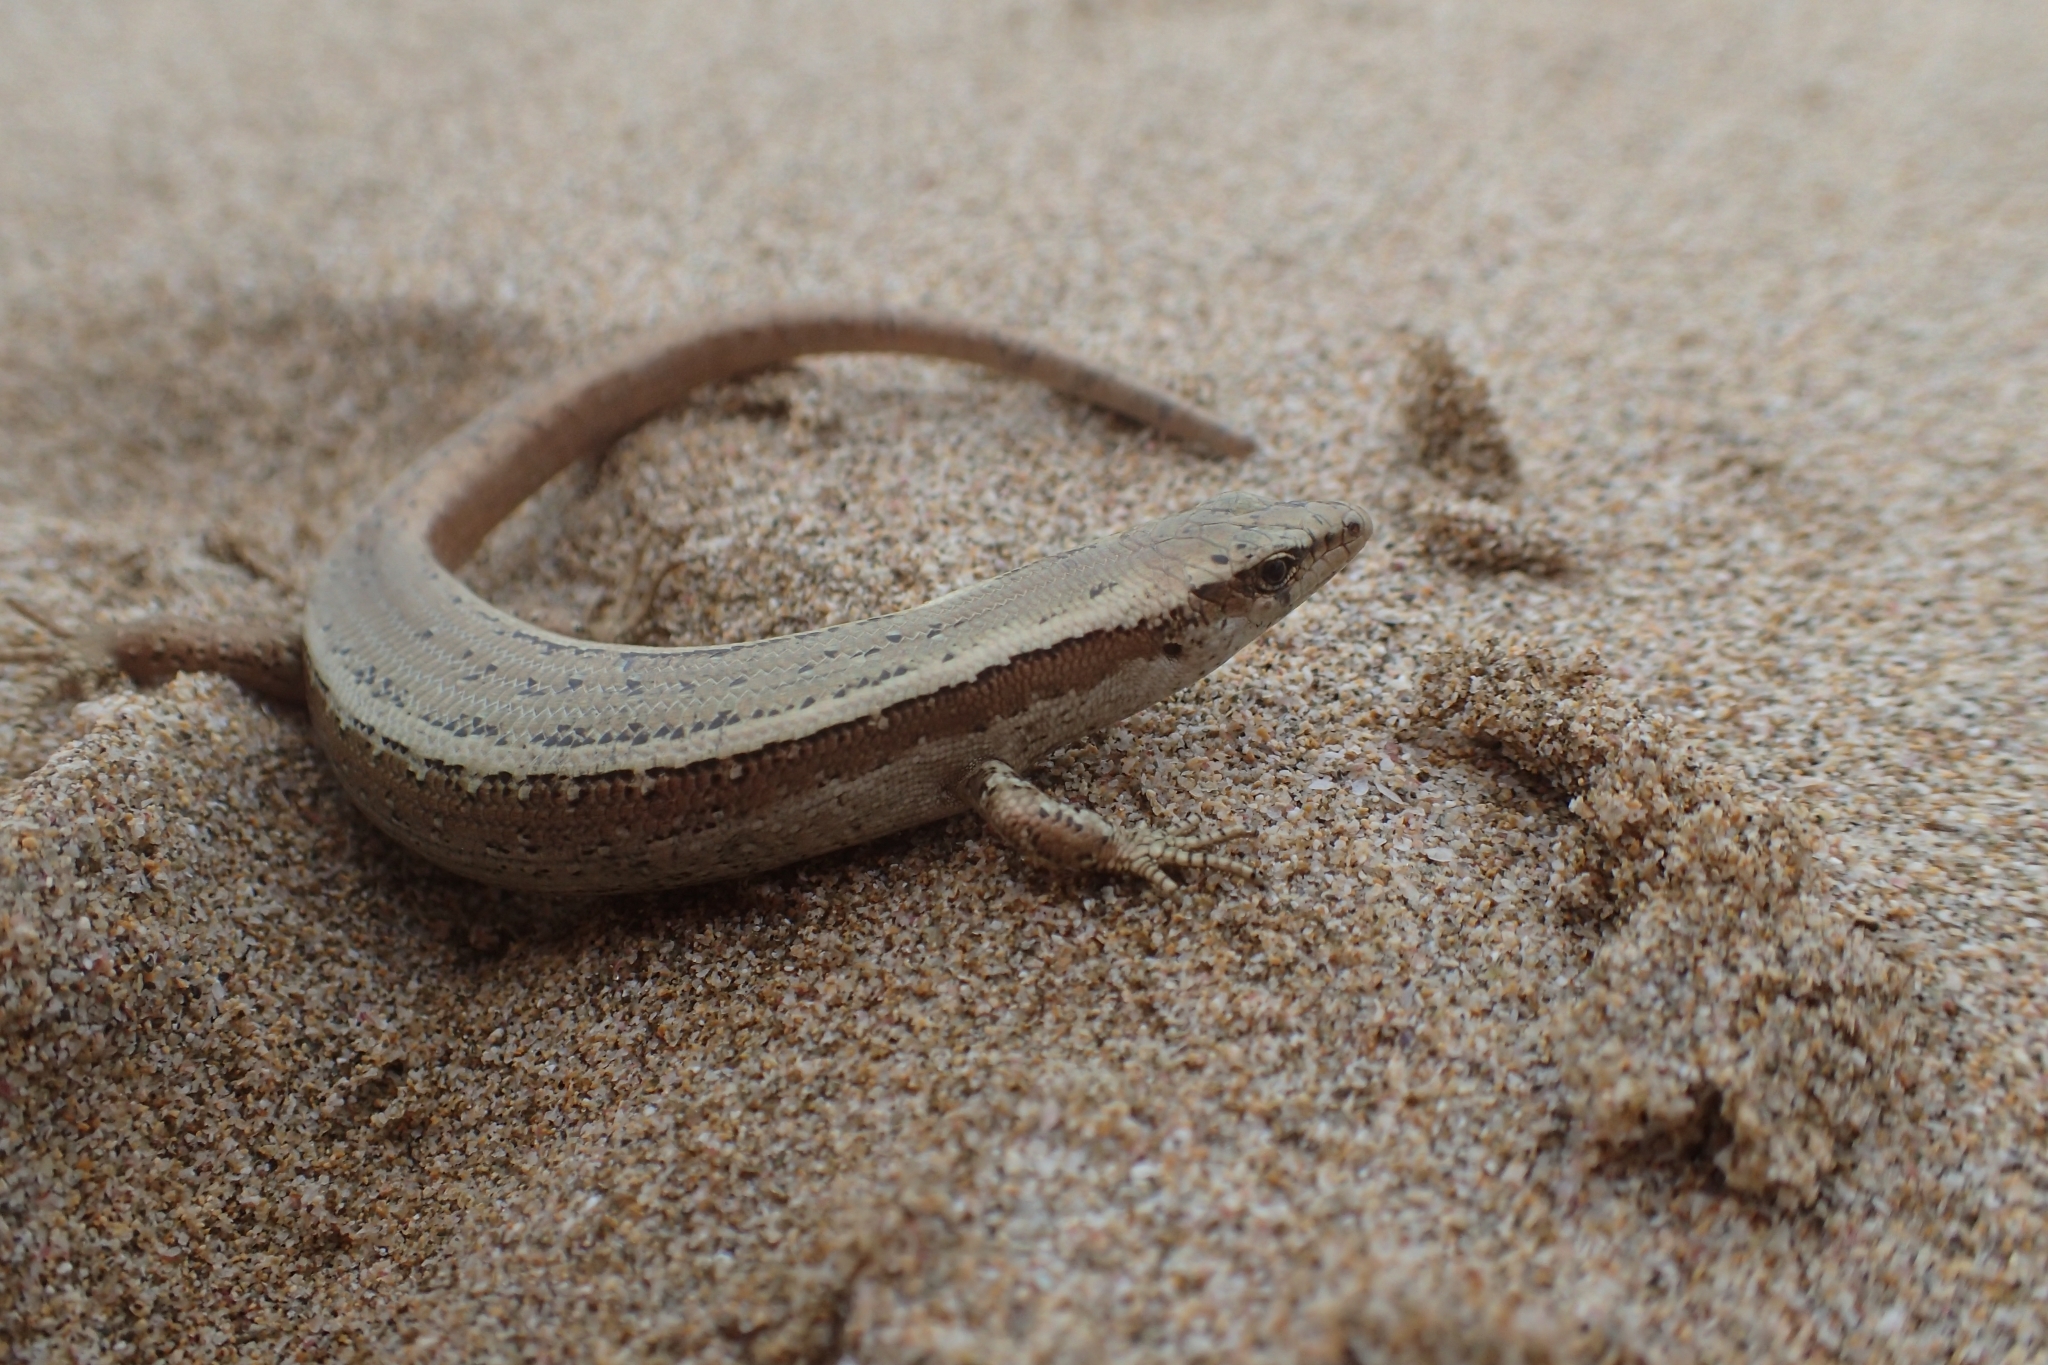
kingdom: Animalia
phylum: Chordata
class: Squamata
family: Scincidae
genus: Oligosoma
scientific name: Oligosoma smithi
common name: Shore skink
